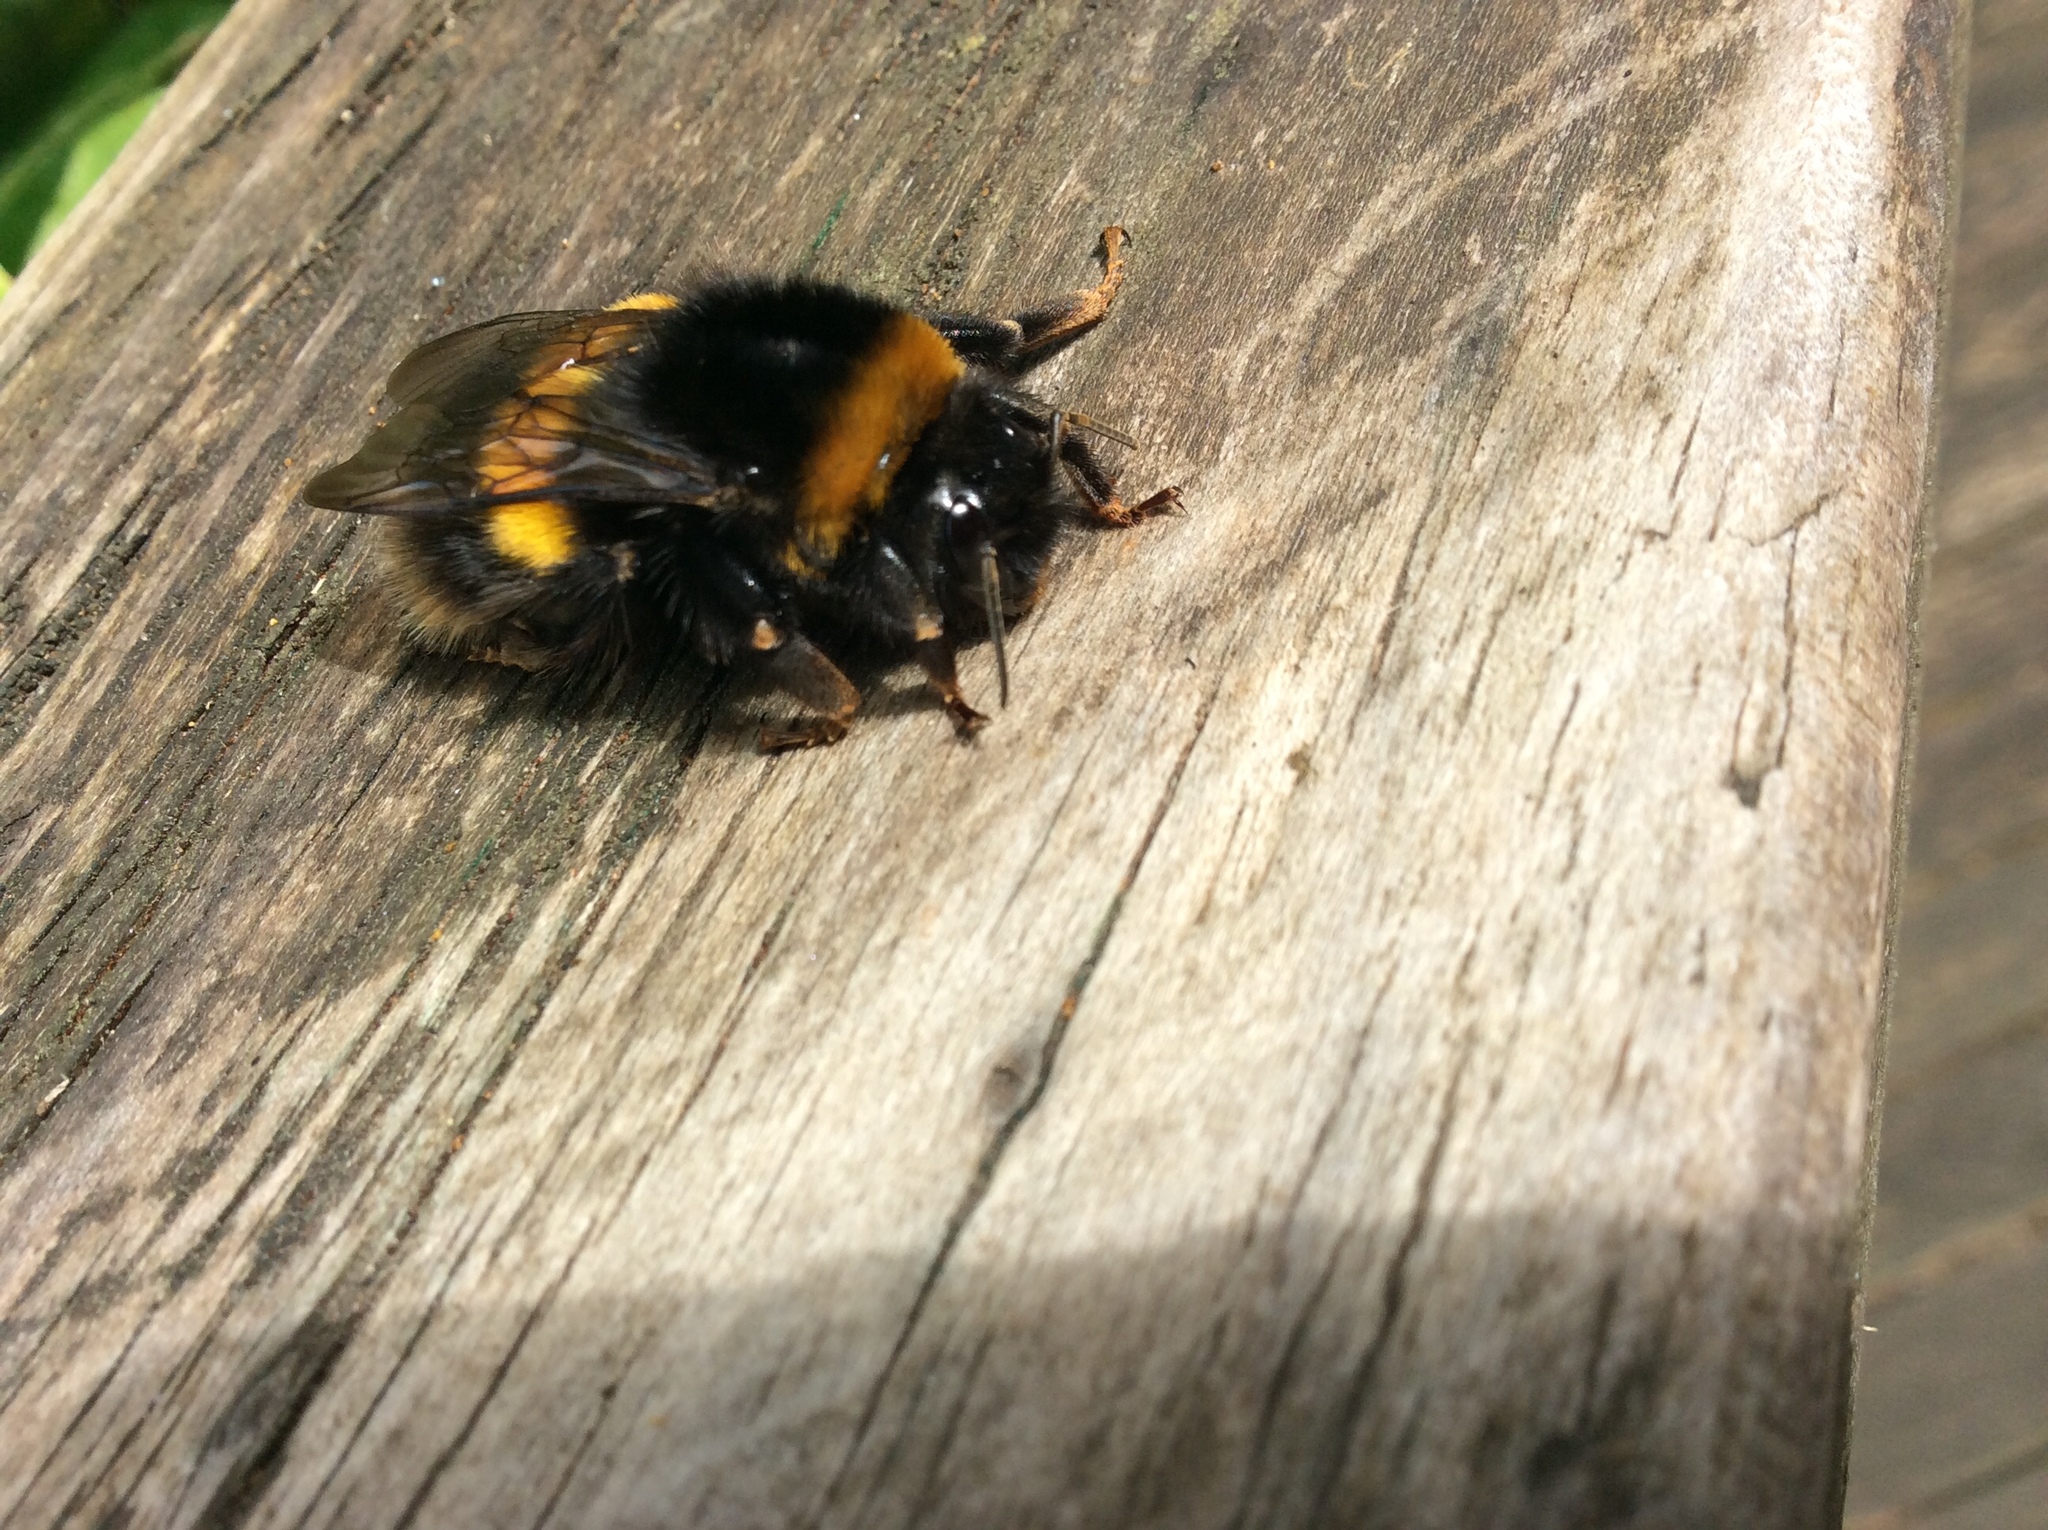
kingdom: Animalia
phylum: Arthropoda
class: Insecta
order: Hymenoptera
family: Apidae
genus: Bombus
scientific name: Bombus terrestris
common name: Buff-tailed bumblebee
